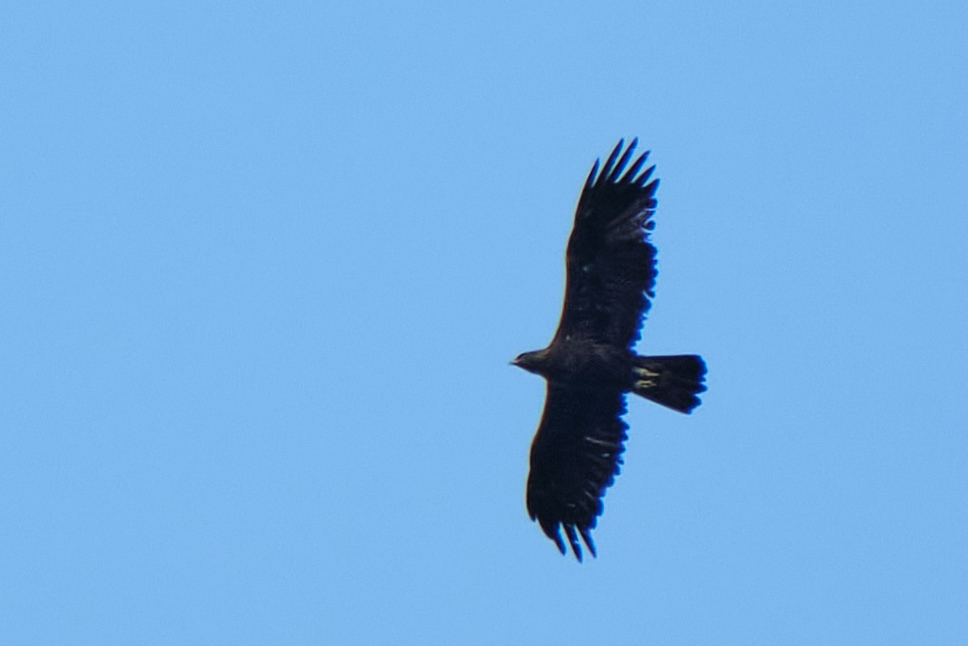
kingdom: Animalia
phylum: Chordata
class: Aves
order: Accipitriformes
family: Accipitridae
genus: Aquila
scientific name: Aquila chrysaetos
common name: Golden eagle
